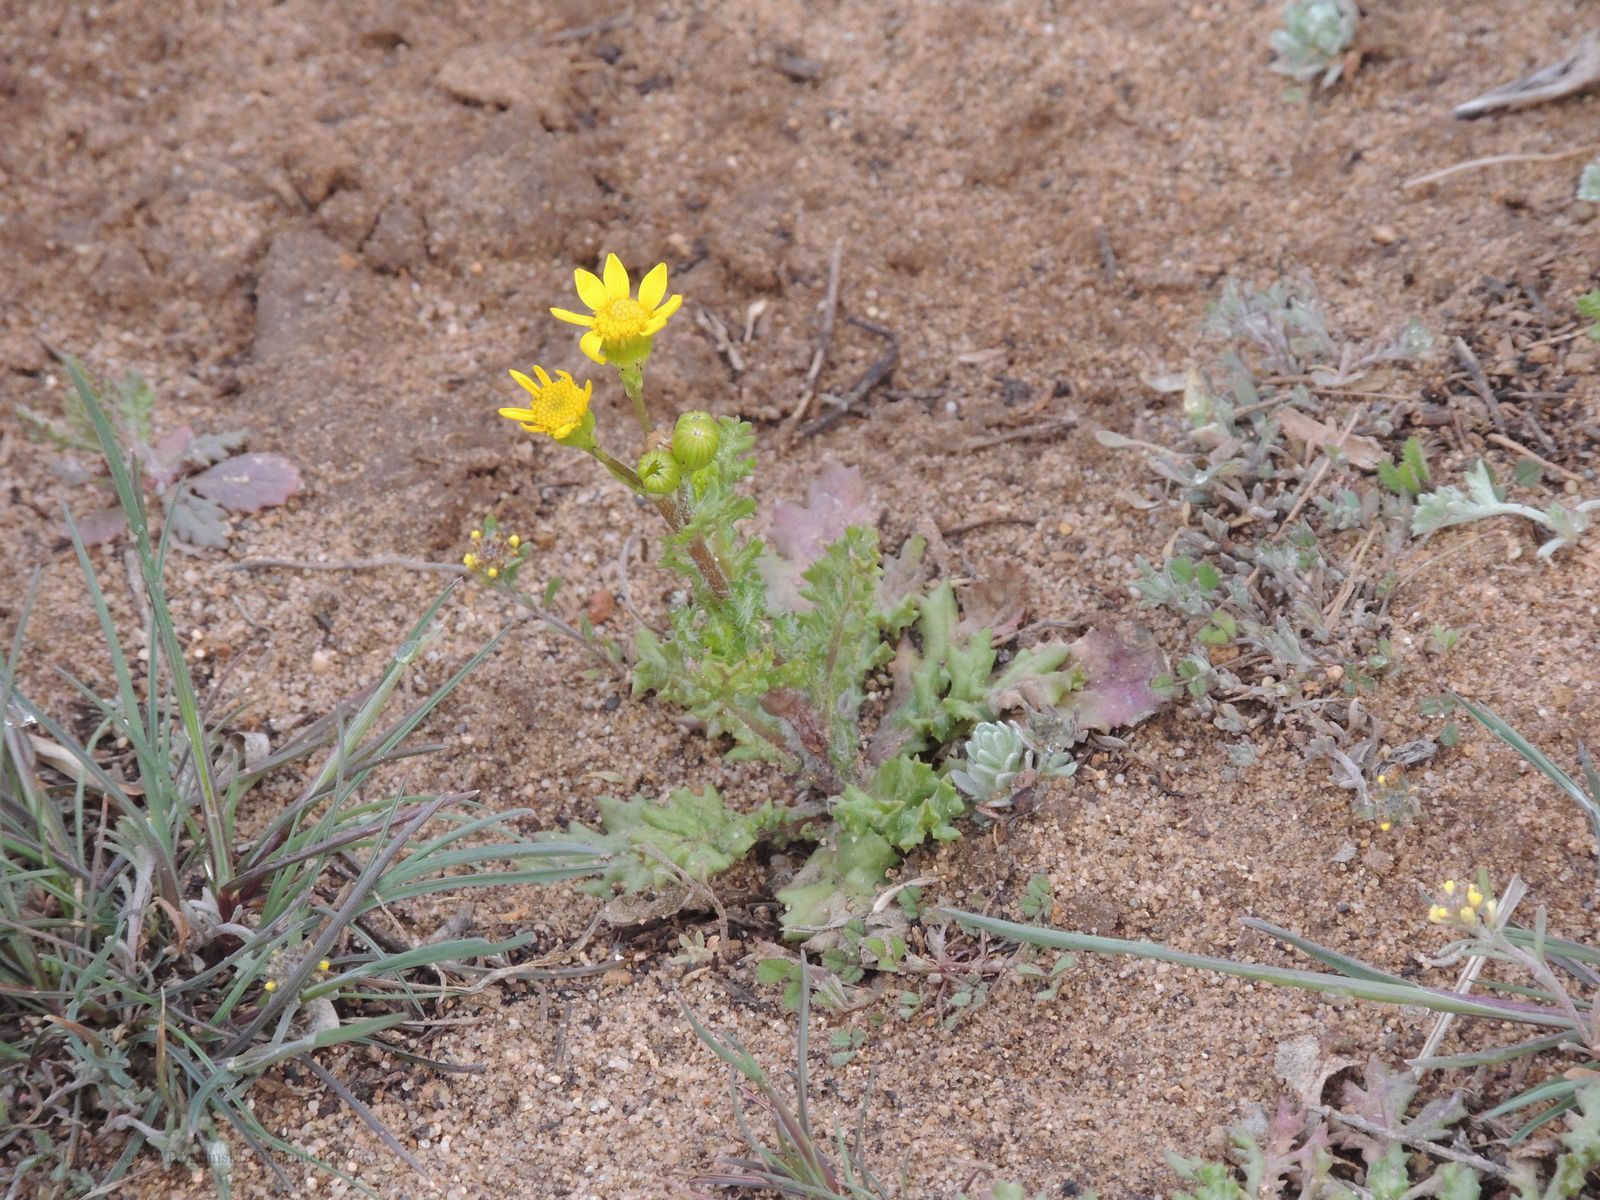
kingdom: Plantae
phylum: Tracheophyta
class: Magnoliopsida
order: Asterales
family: Asteraceae
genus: Senecio
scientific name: Senecio vernalis
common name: Eastern groundsel
